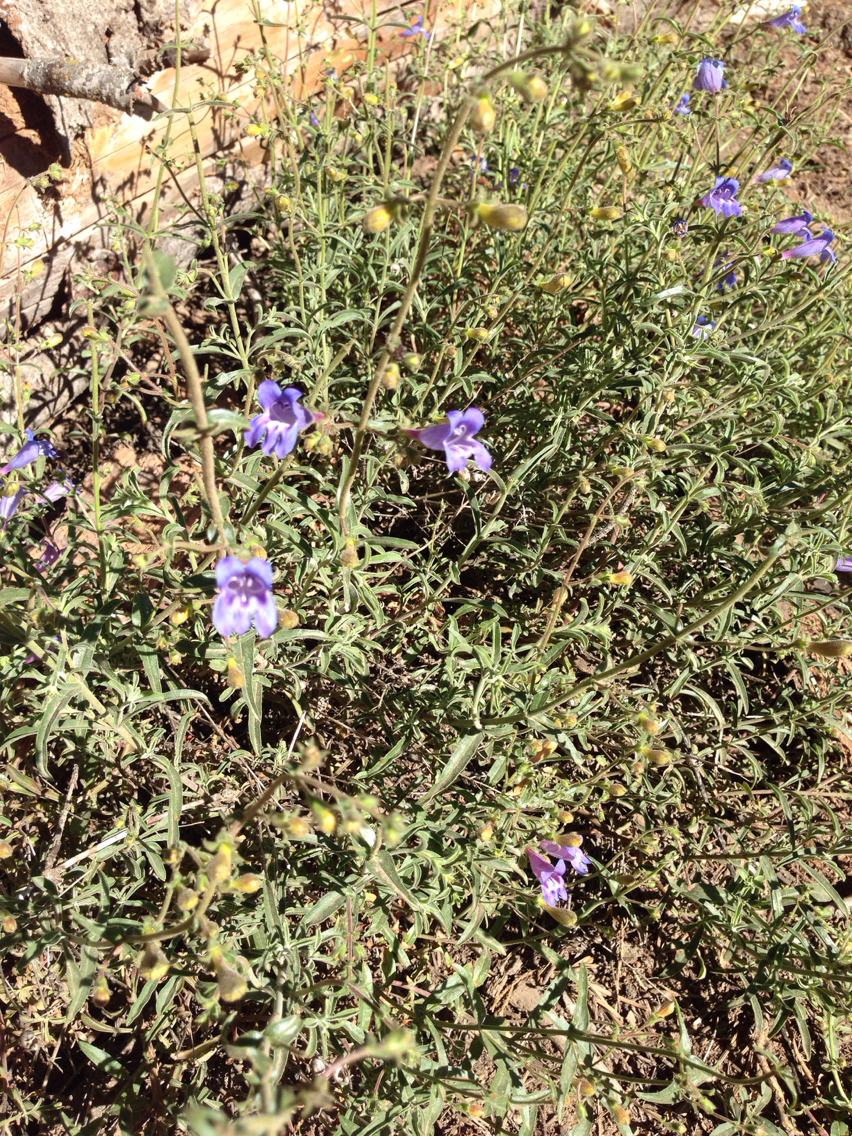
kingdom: Plantae
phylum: Tracheophyta
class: Magnoliopsida
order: Lamiales
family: Plantaginaceae
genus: Penstemon
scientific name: Penstemon laetus
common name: Gay penstemon
